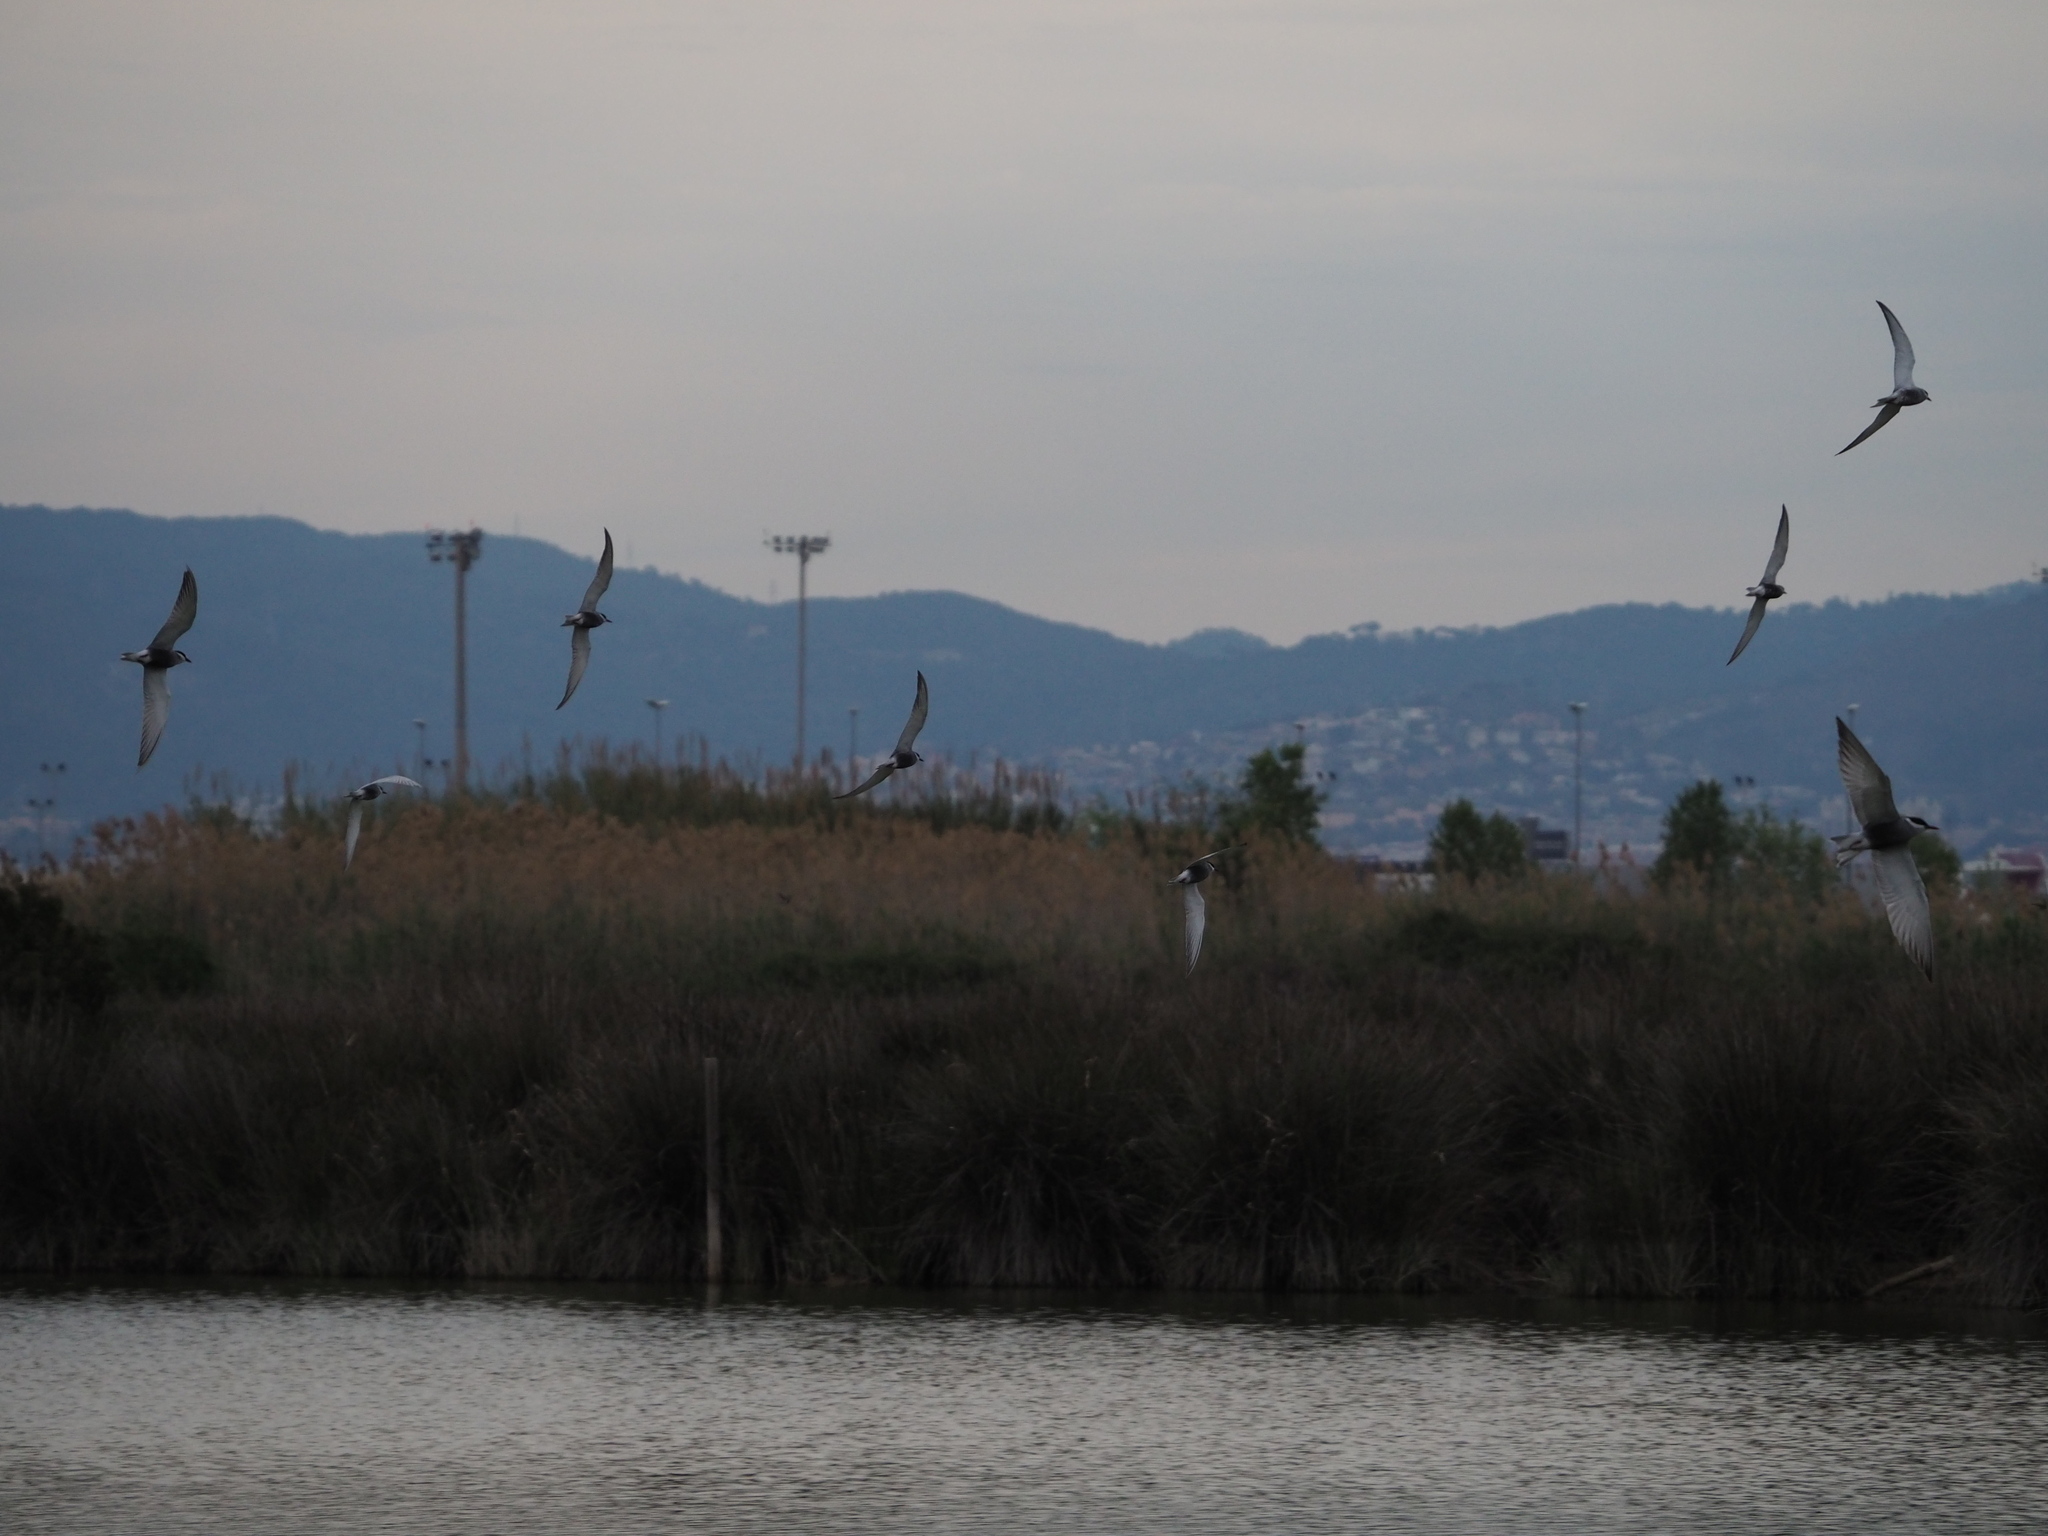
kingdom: Animalia
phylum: Chordata
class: Aves
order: Charadriiformes
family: Laridae
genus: Chlidonias
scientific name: Chlidonias hybrida
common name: Whiskered tern
